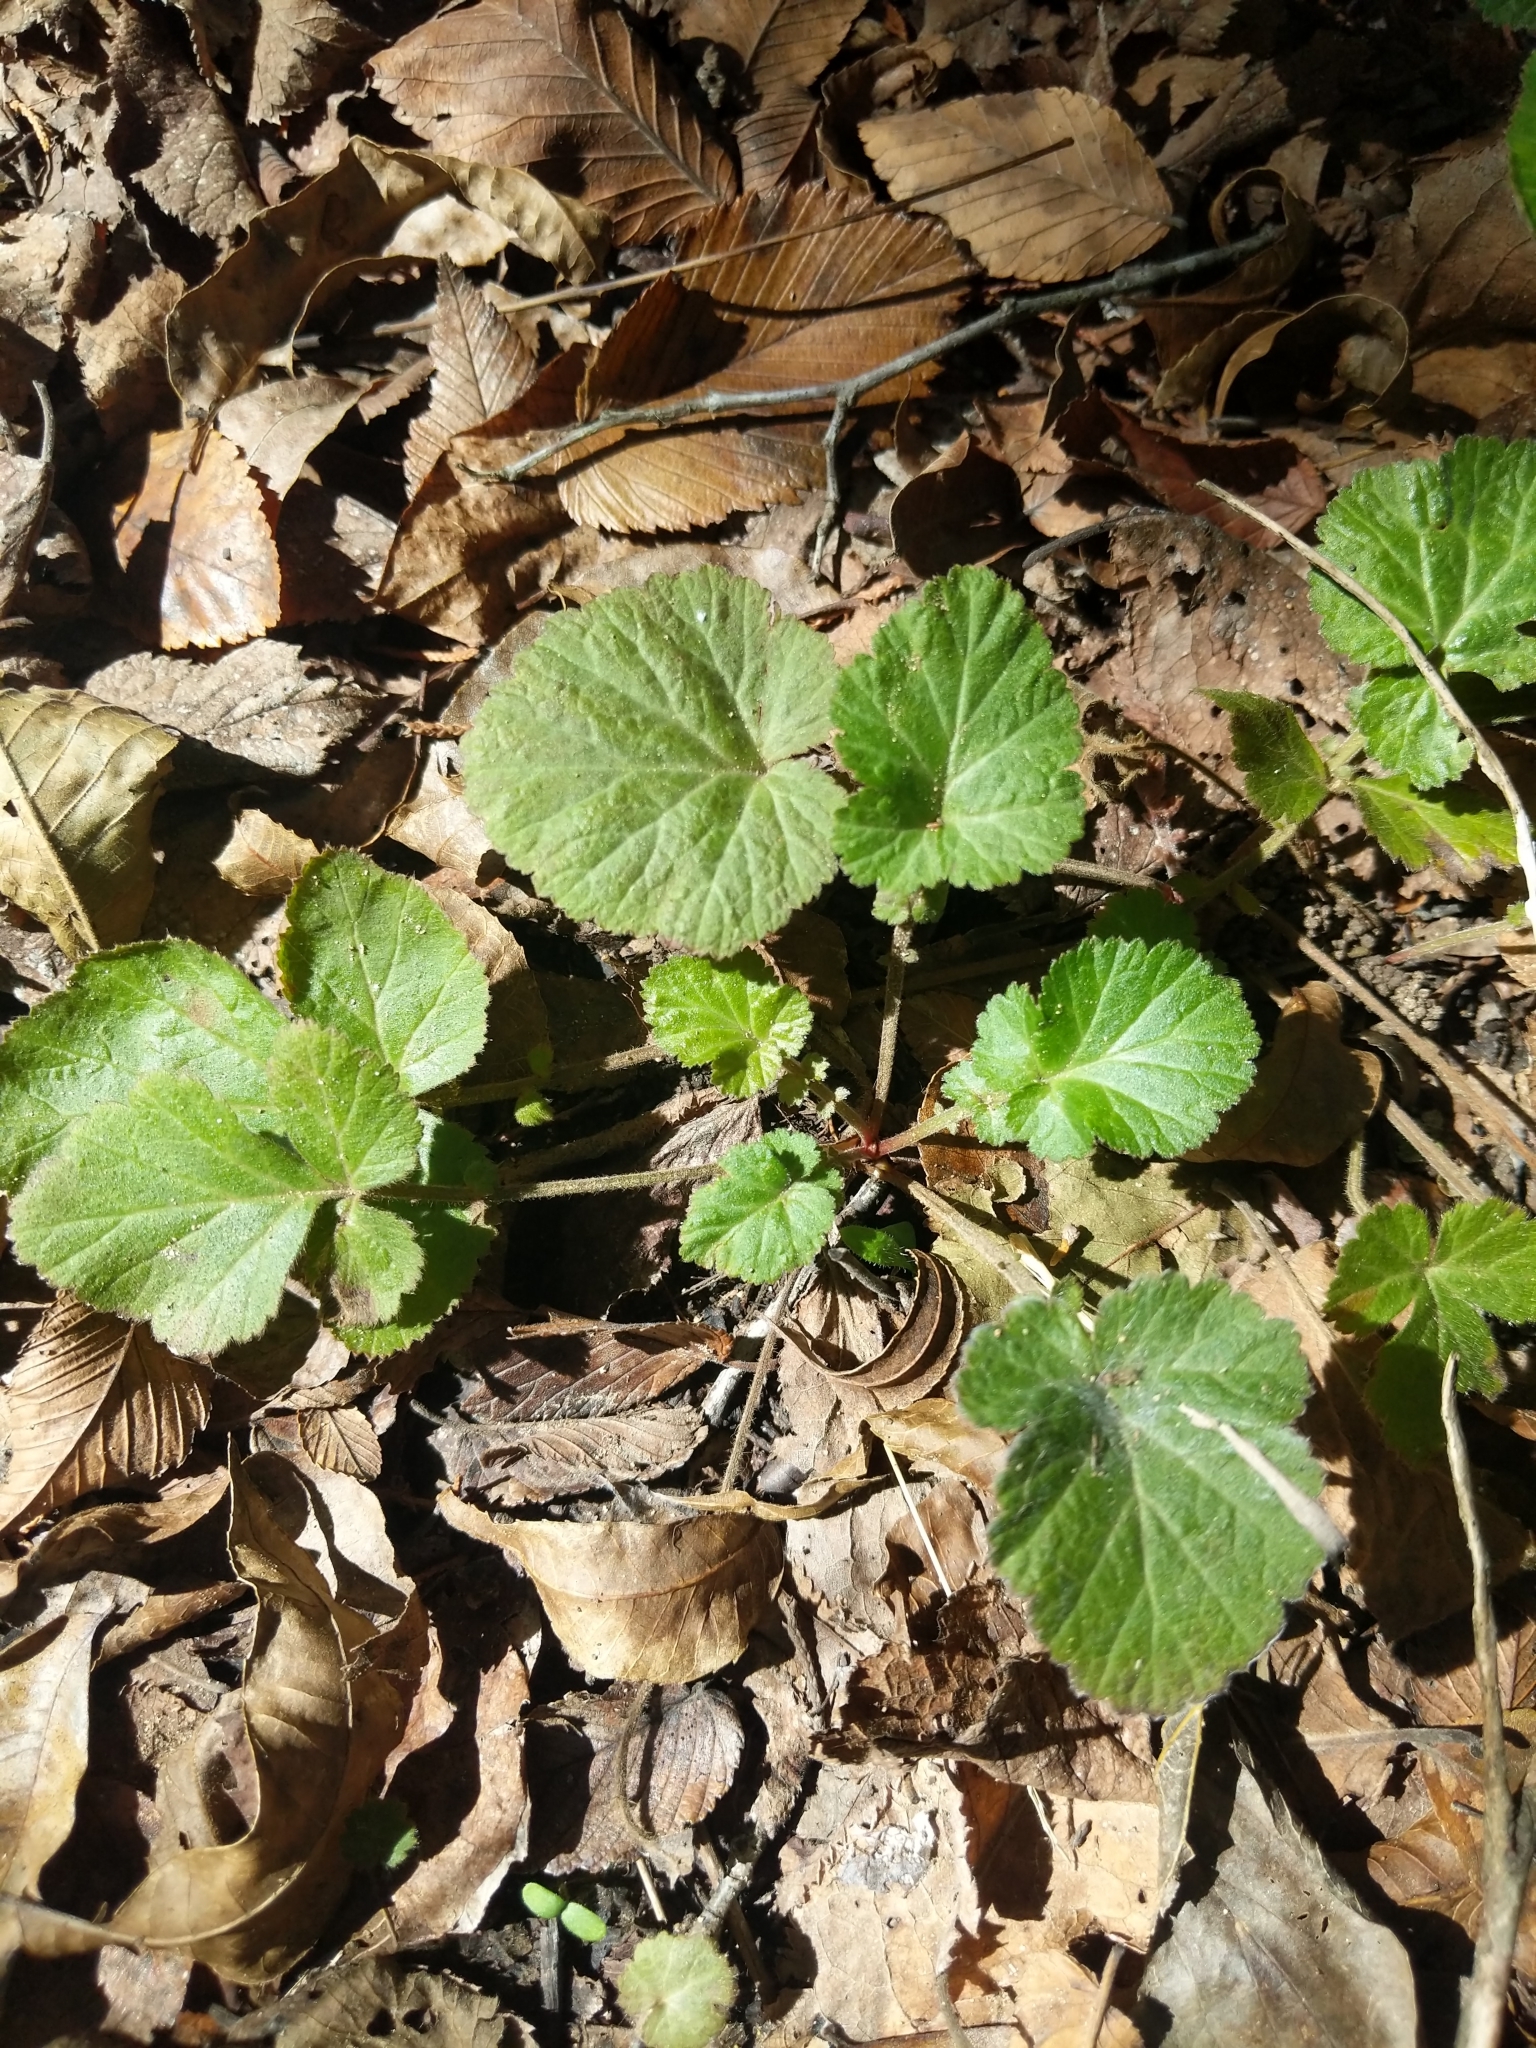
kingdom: Plantae
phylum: Tracheophyta
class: Magnoliopsida
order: Rosales
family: Rosaceae
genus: Geum
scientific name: Geum canadense
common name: White avens
